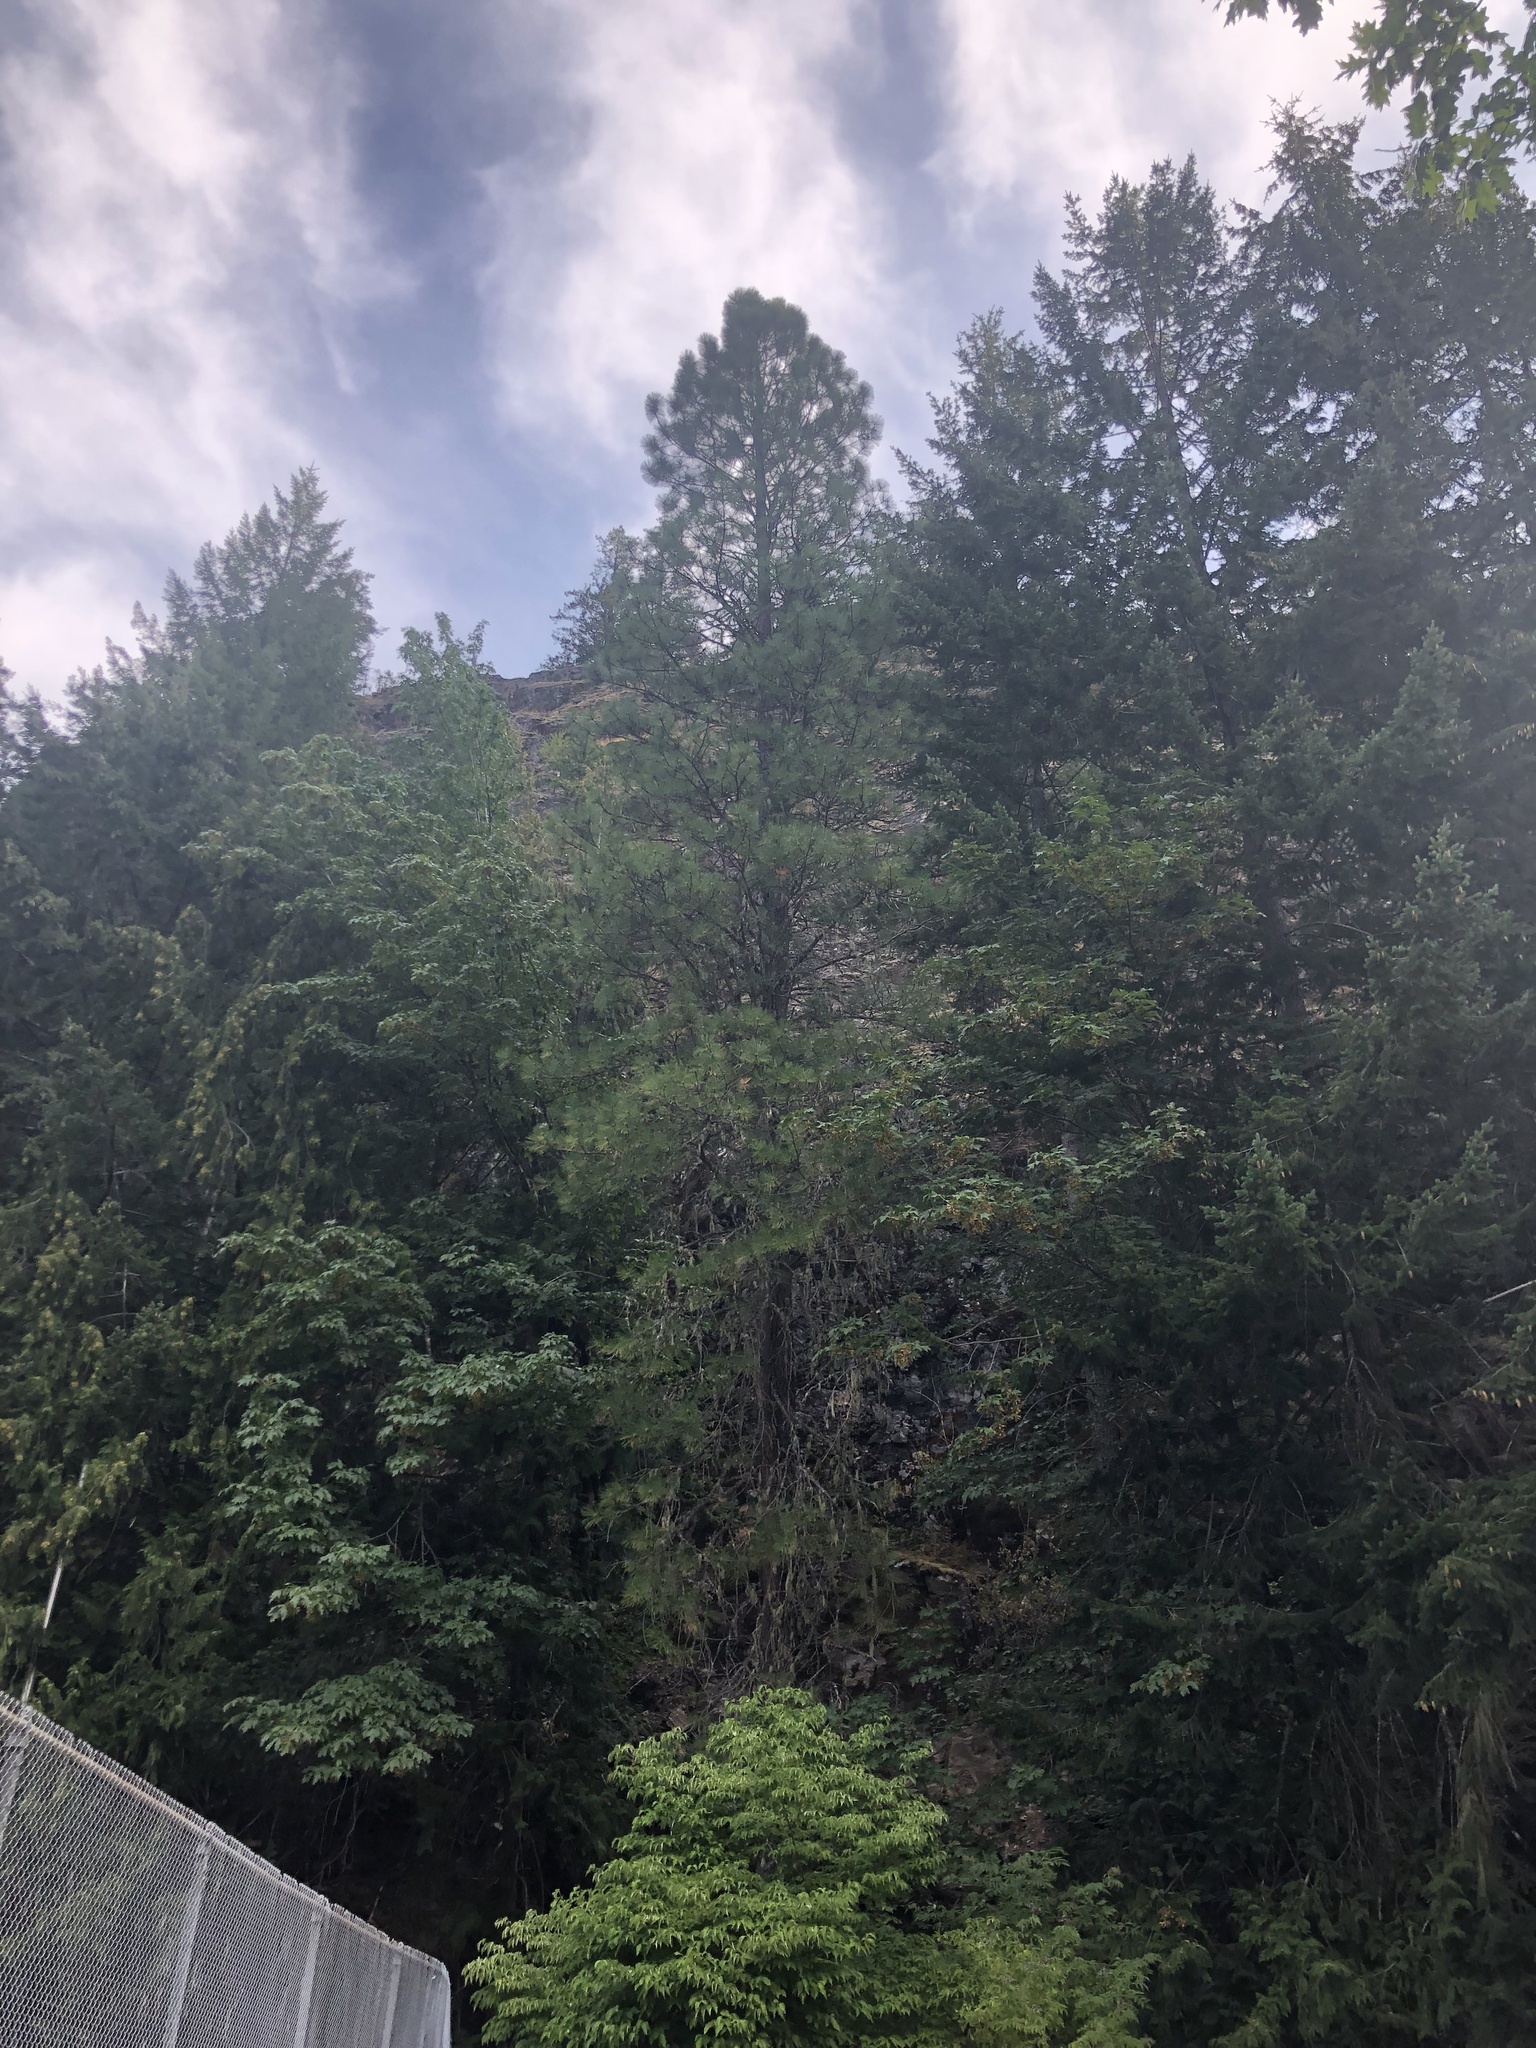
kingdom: Plantae
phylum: Tracheophyta
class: Pinopsida
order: Pinales
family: Pinaceae
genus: Pinus
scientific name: Pinus ponderosa
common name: Western yellow-pine
